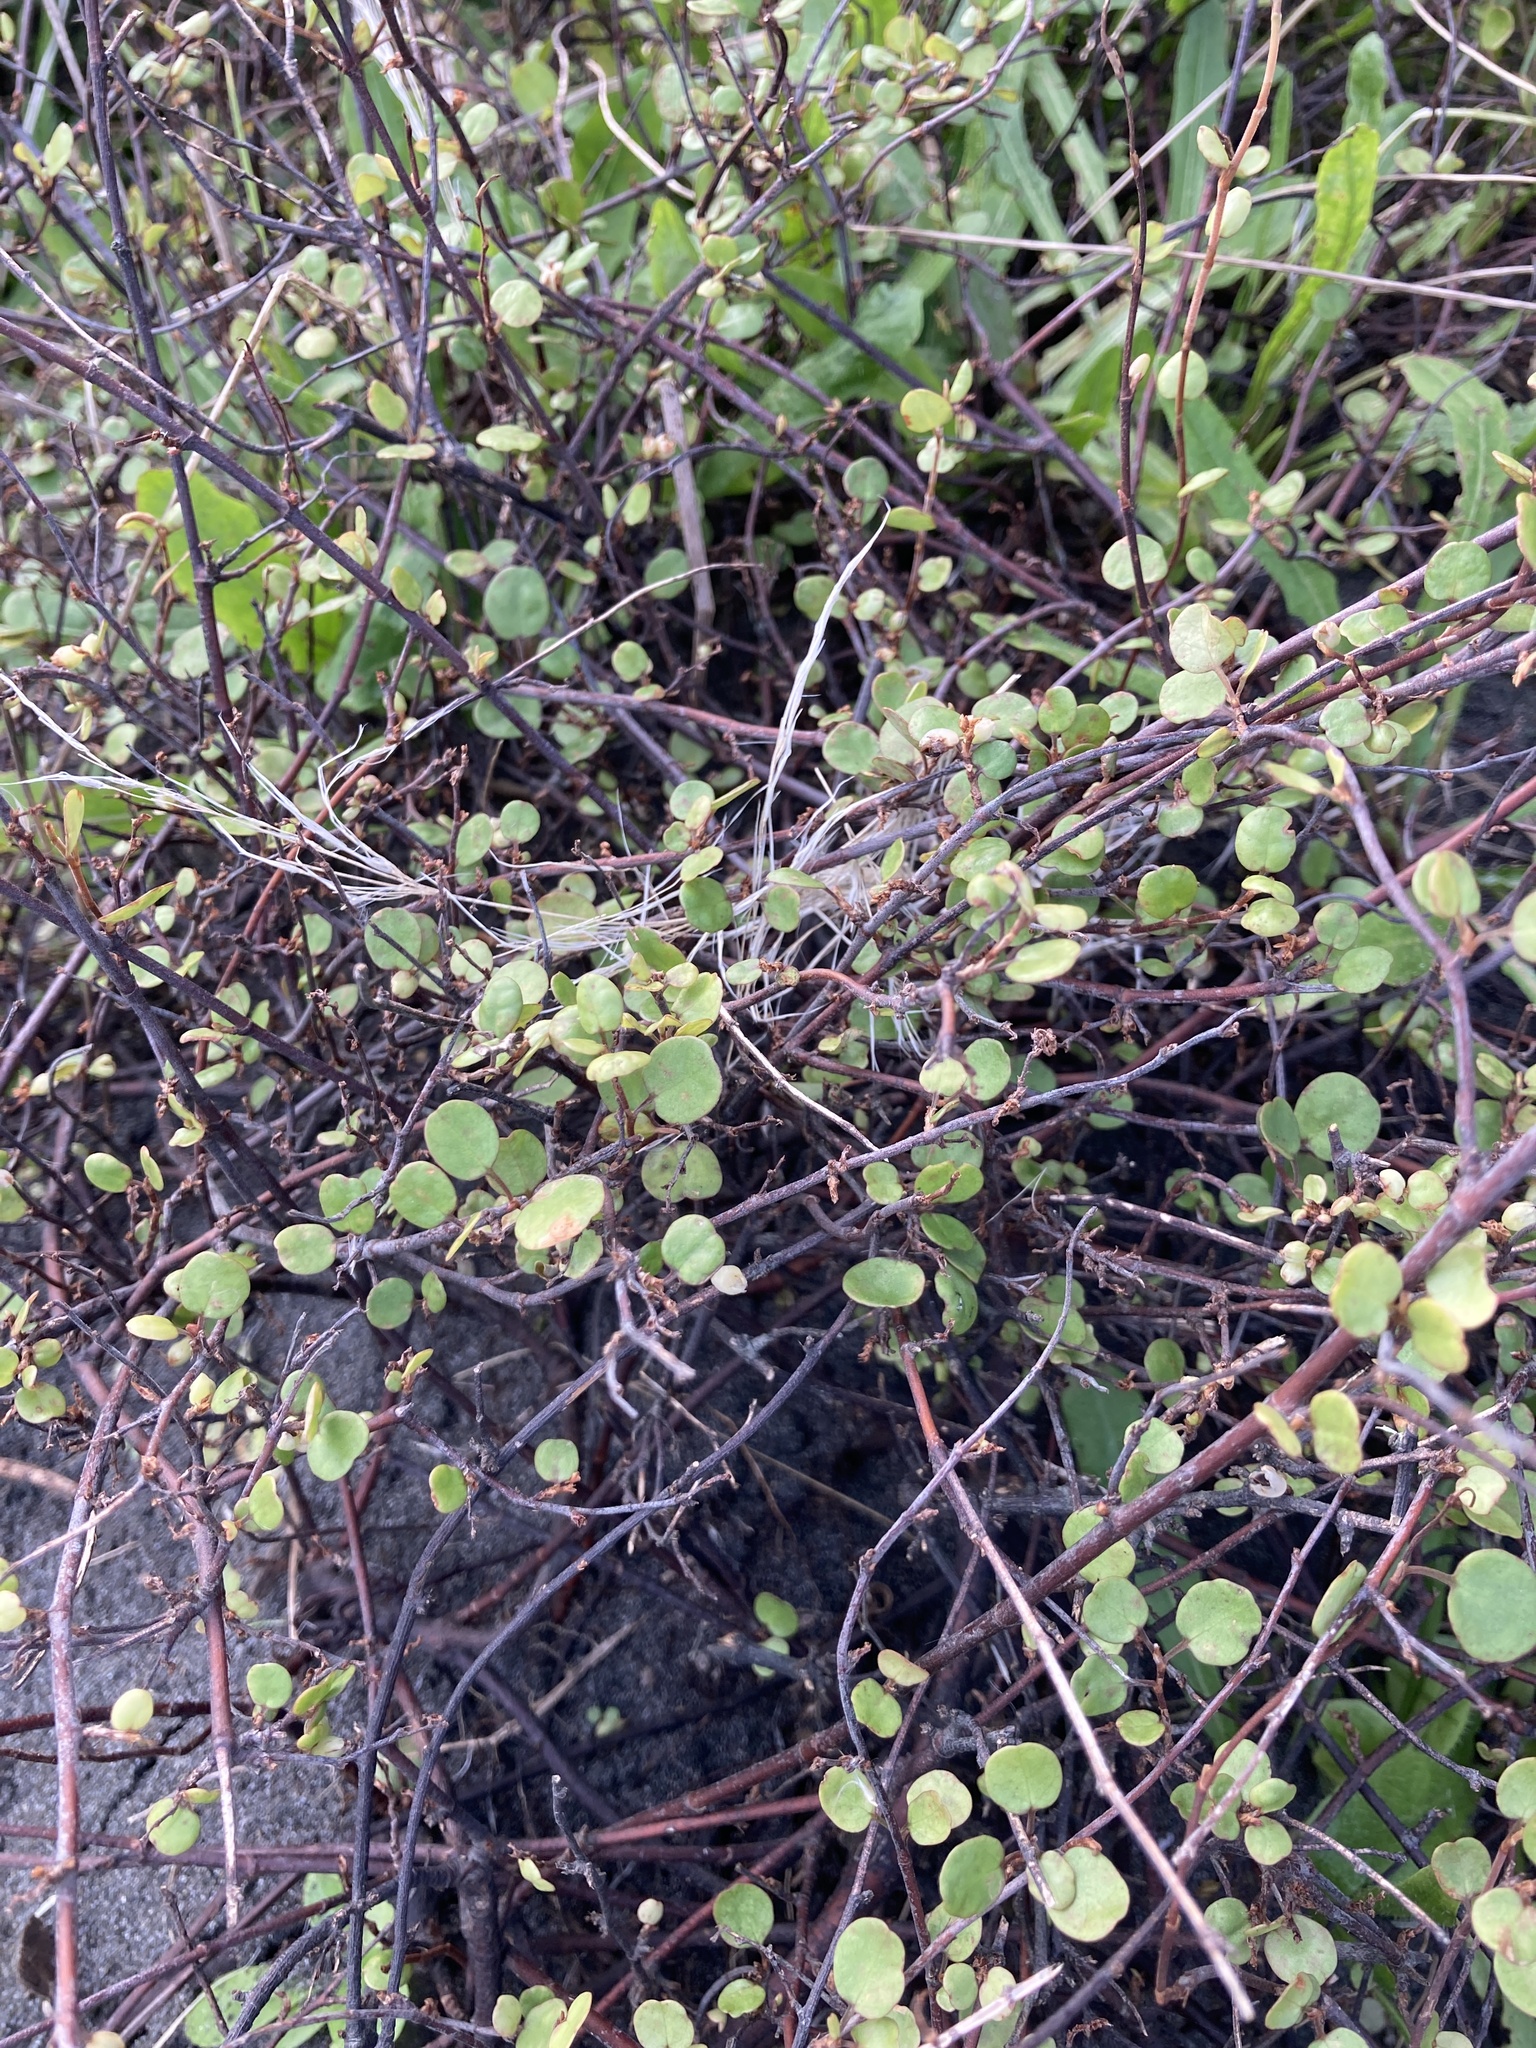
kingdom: Plantae
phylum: Tracheophyta
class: Magnoliopsida
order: Caryophyllales
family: Polygonaceae
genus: Muehlenbeckia
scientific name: Muehlenbeckia complexa
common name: Wireplant
